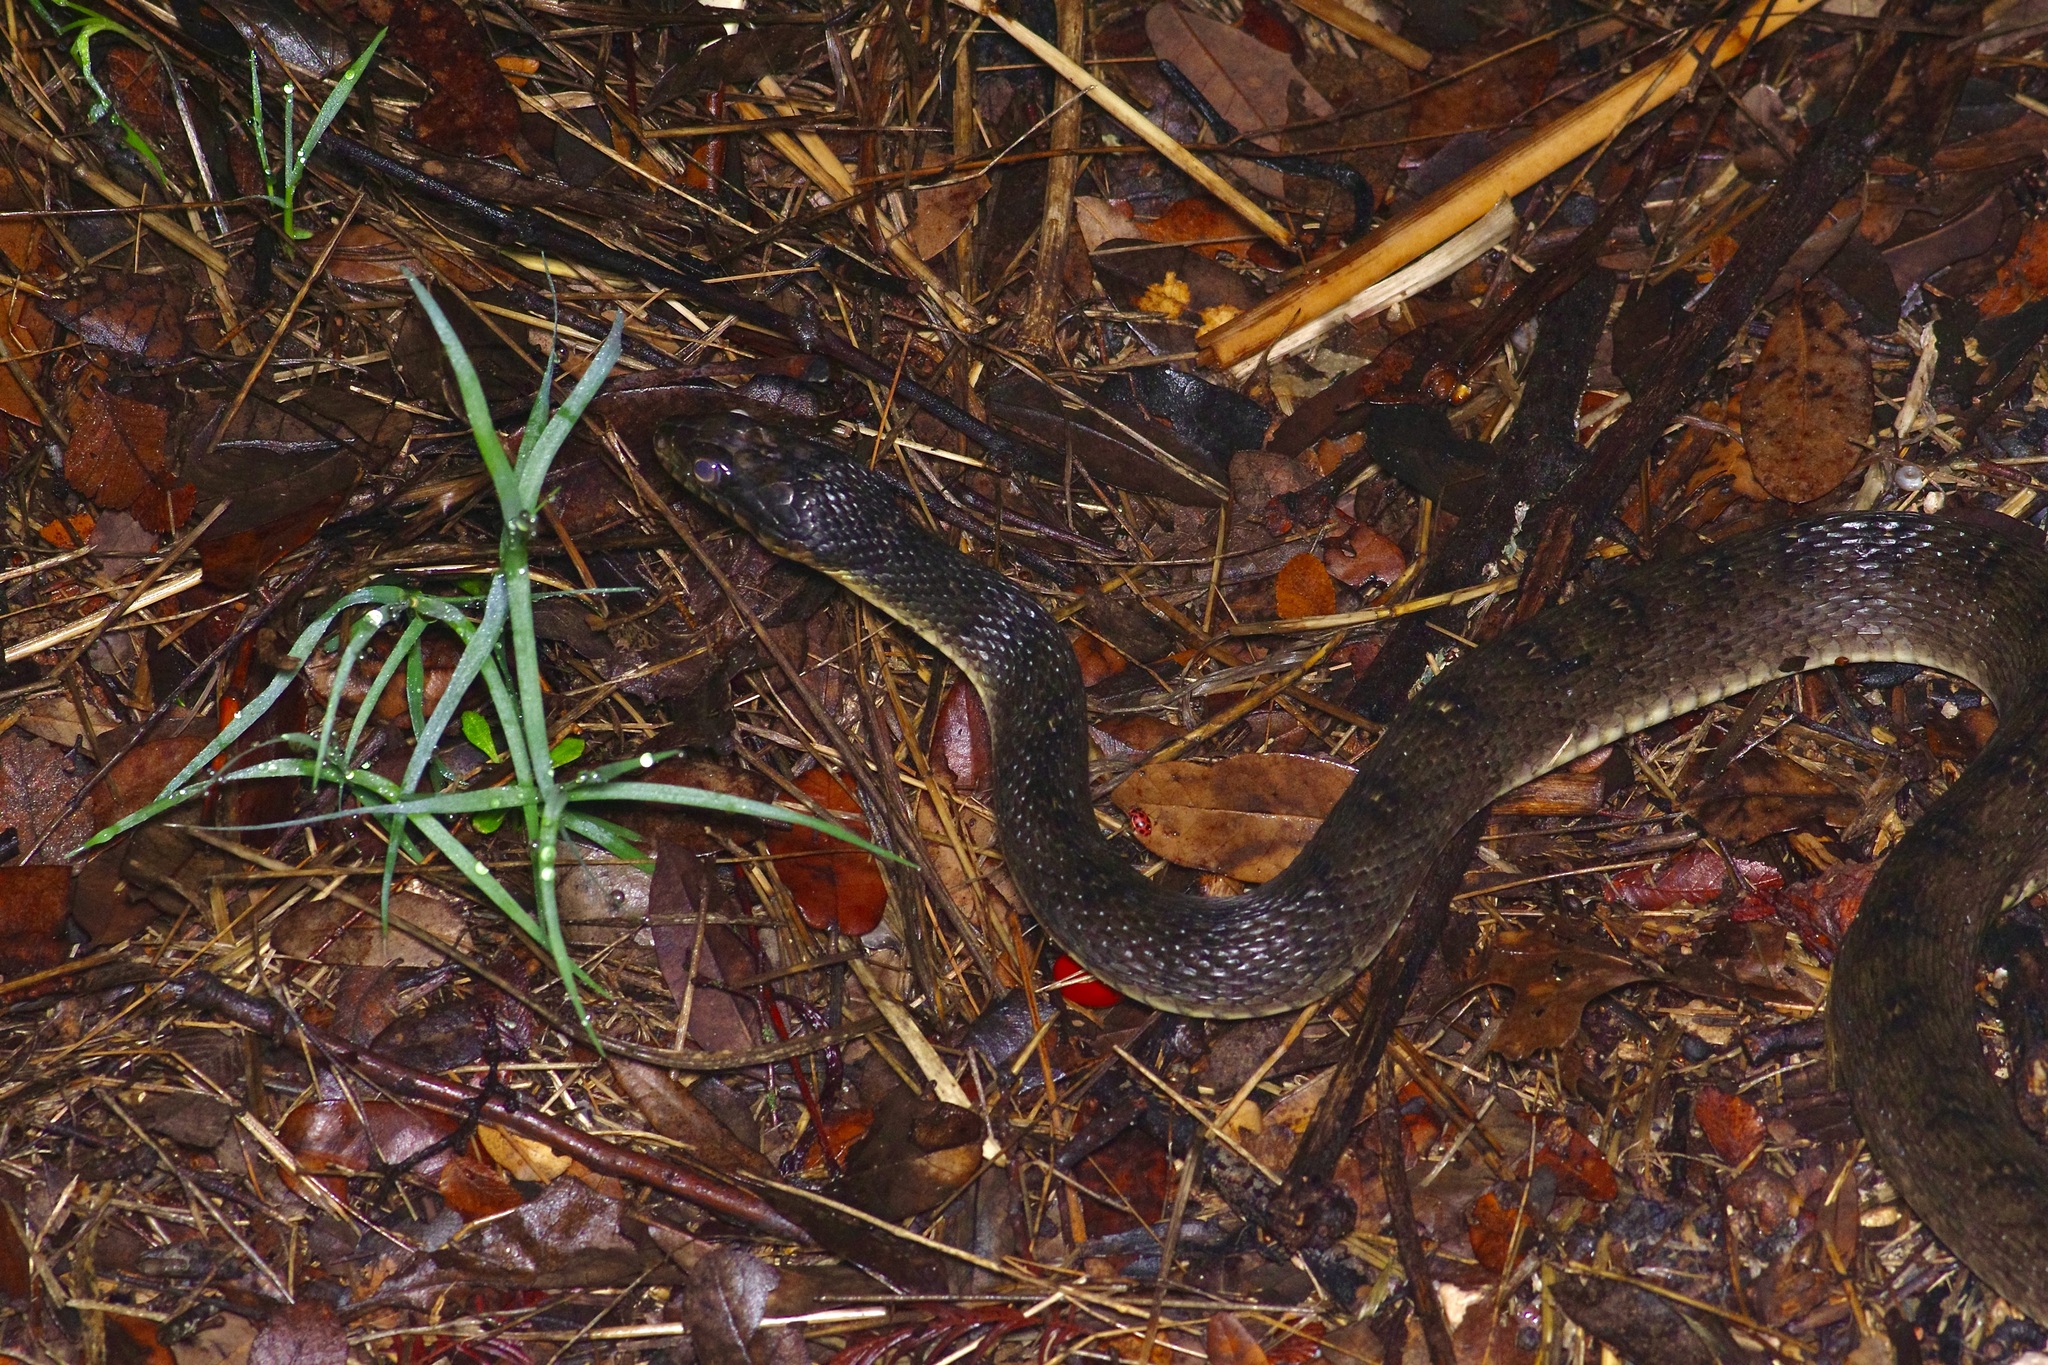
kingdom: Animalia
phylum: Chordata
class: Squamata
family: Colubridae
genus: Nerodia
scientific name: Nerodia erythrogaster
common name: Plainbelly water snake
